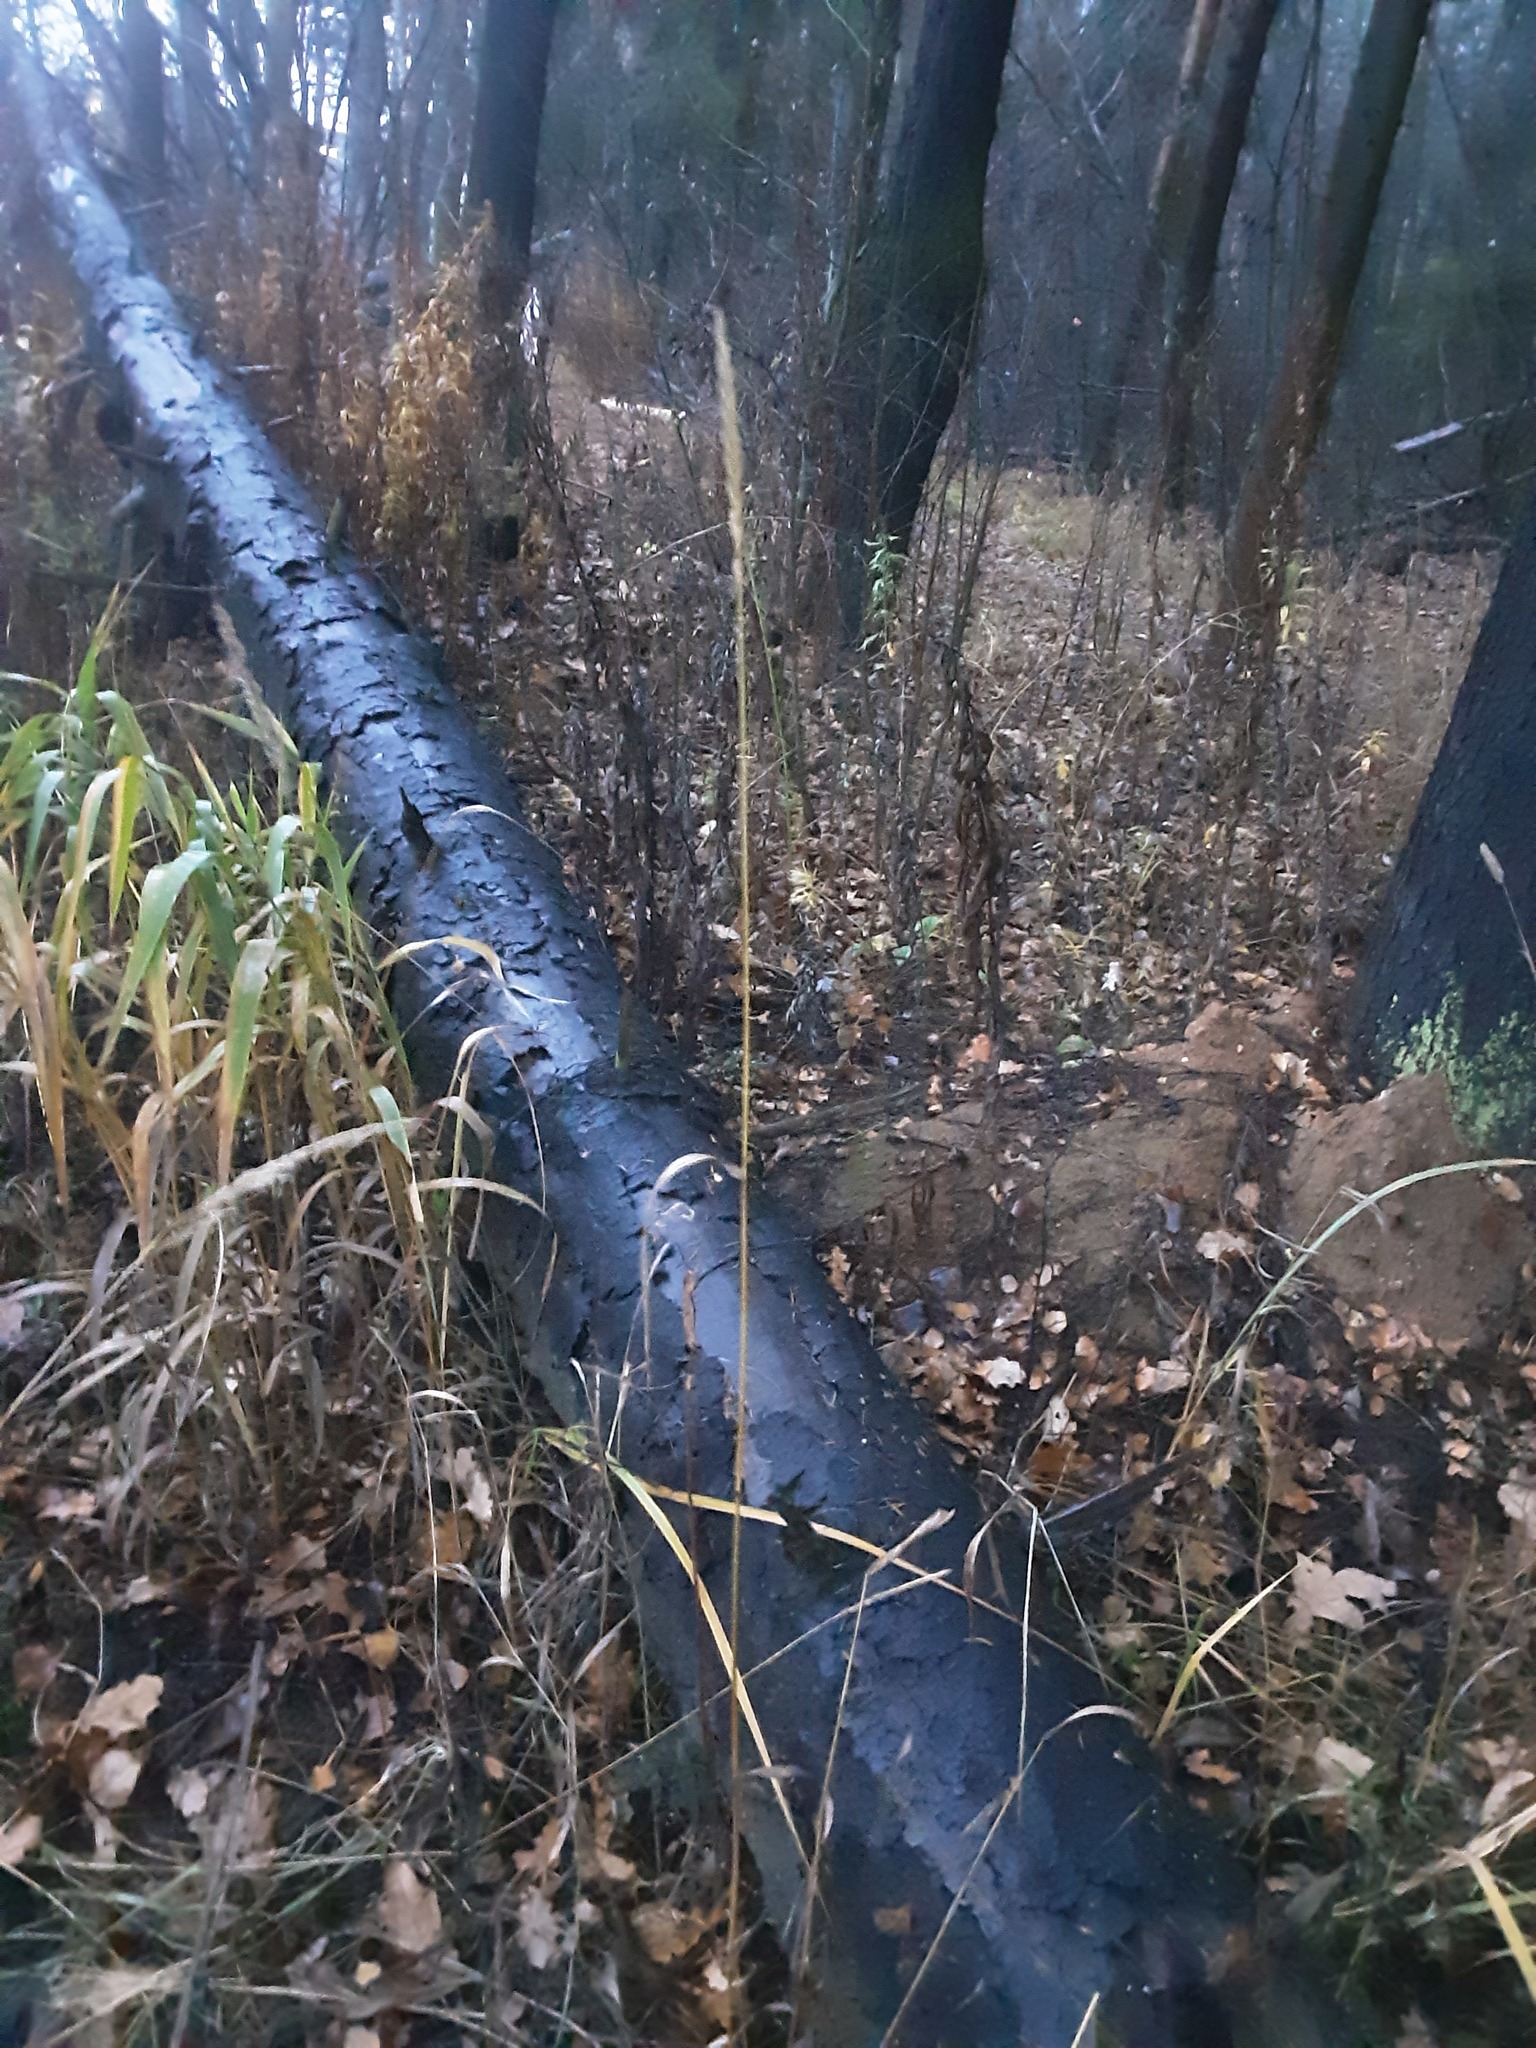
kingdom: Plantae
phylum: Tracheophyta
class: Liliopsida
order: Poales
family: Poaceae
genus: Elymus
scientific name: Elymus repens
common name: Quackgrass
